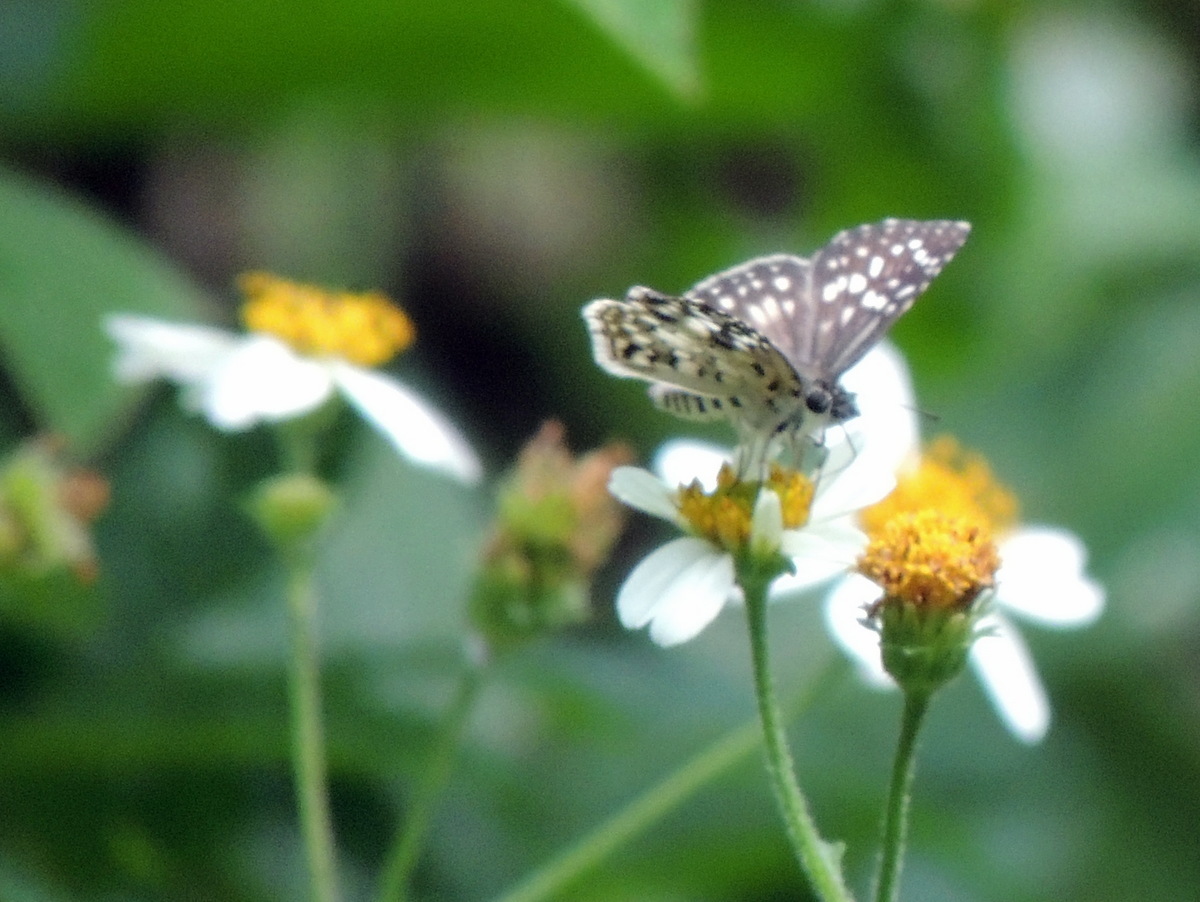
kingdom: Animalia
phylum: Arthropoda
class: Insecta
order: Lepidoptera
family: Hesperiidae
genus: Pyrgus
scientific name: Pyrgus oileus
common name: Tropical checkered-skipper
